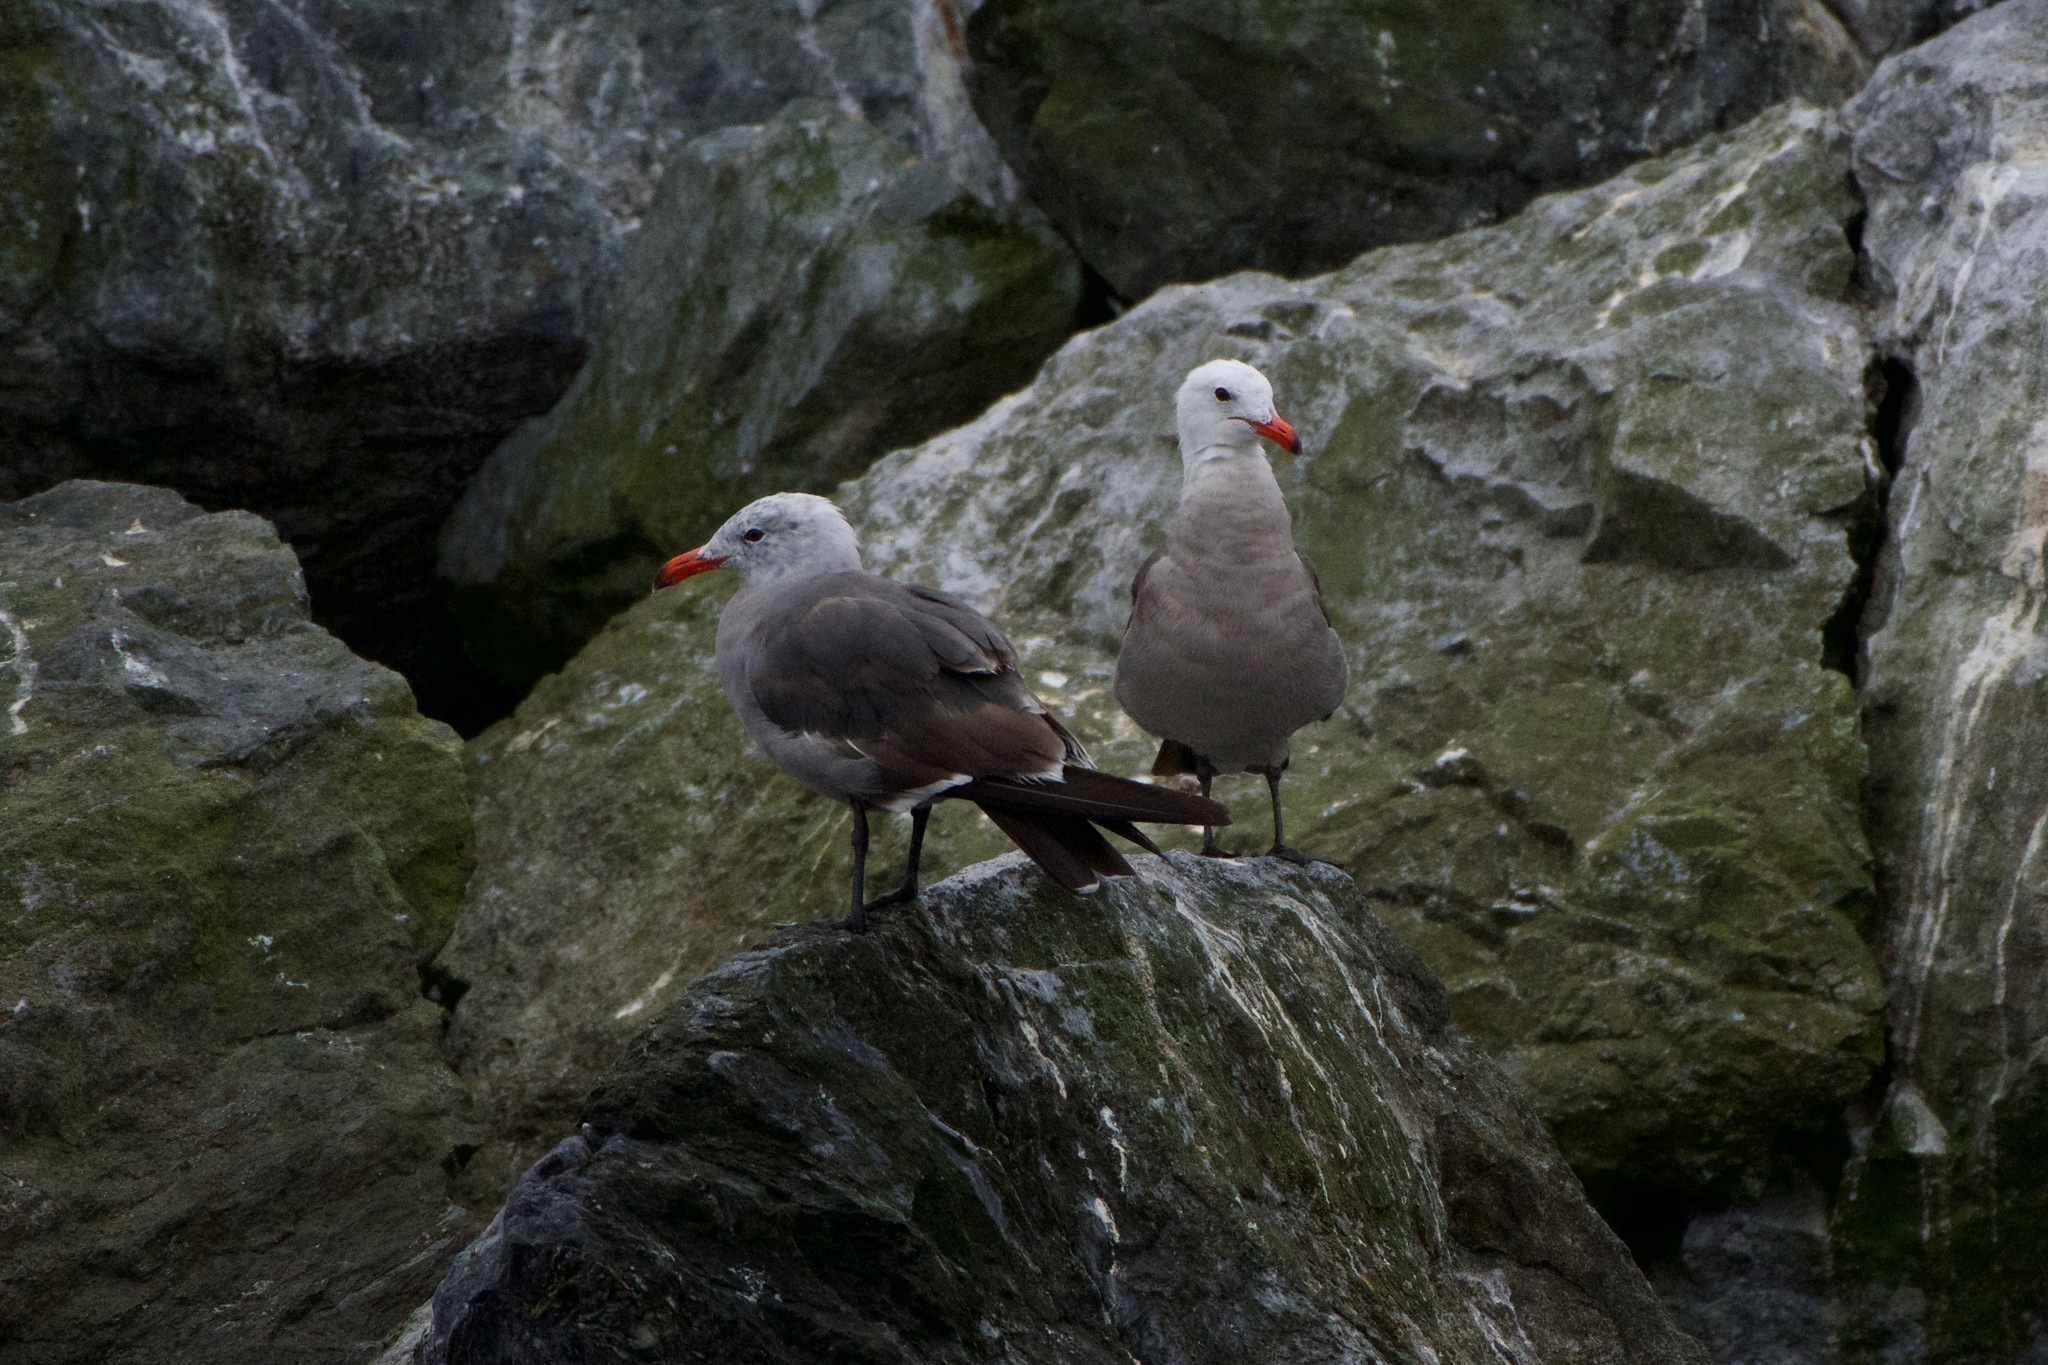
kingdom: Animalia
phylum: Chordata
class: Aves
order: Charadriiformes
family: Laridae
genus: Larus
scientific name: Larus heermanni
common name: Heermann's gull
